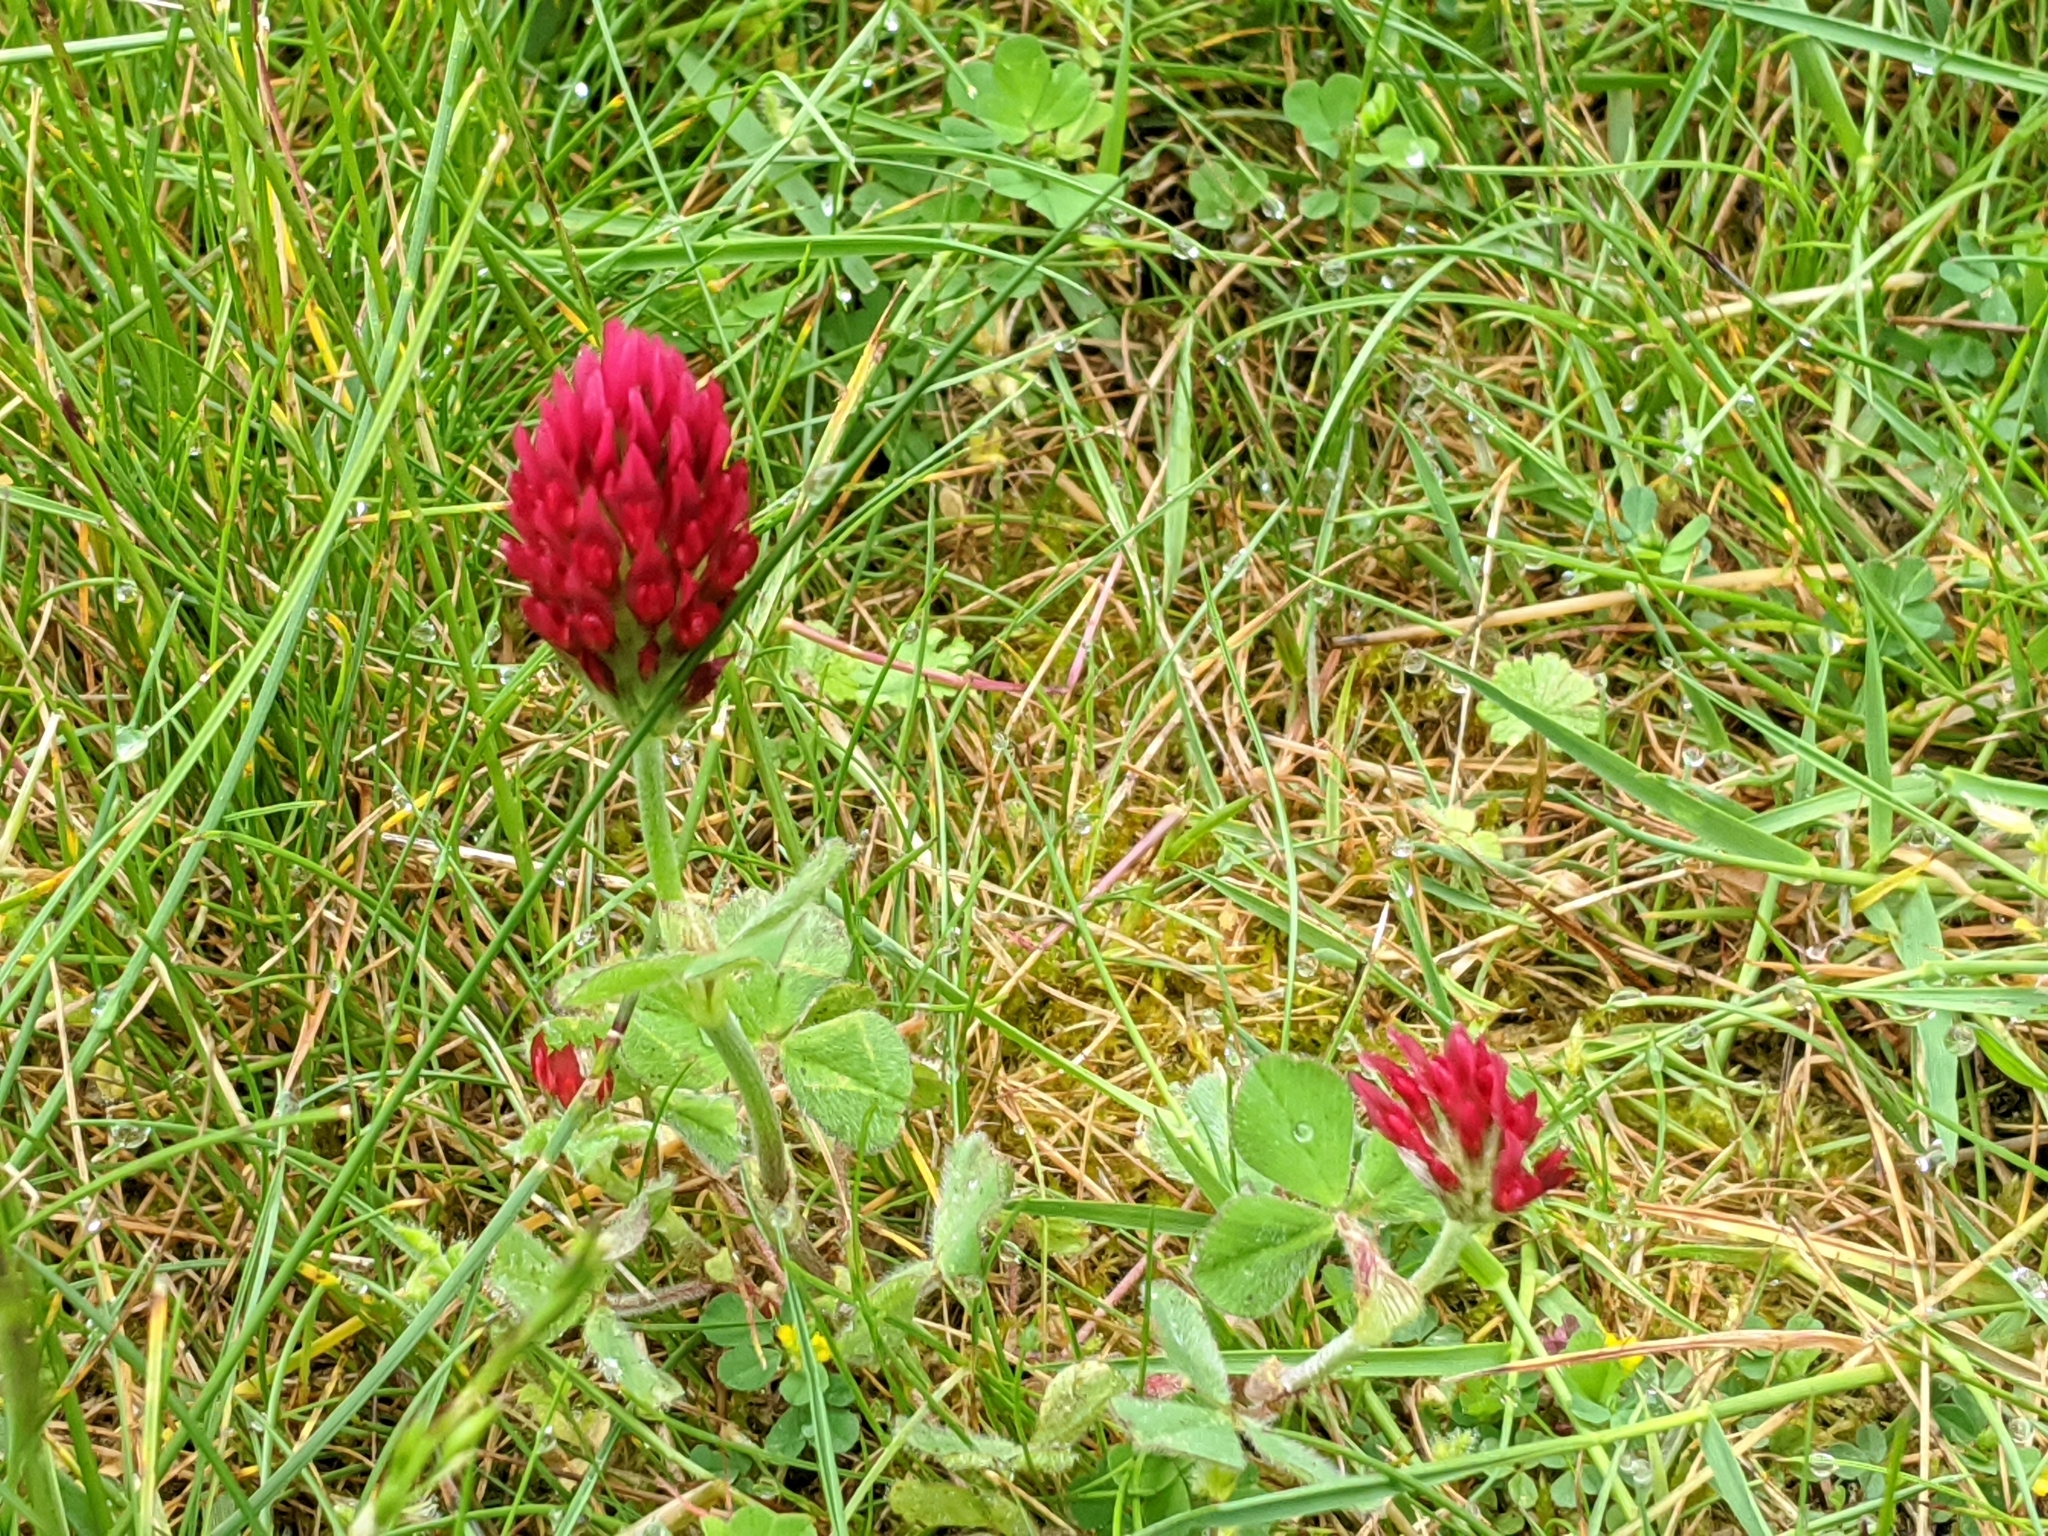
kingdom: Plantae
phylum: Tracheophyta
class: Magnoliopsida
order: Fabales
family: Fabaceae
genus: Trifolium
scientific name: Trifolium incarnatum
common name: Crimson clover
